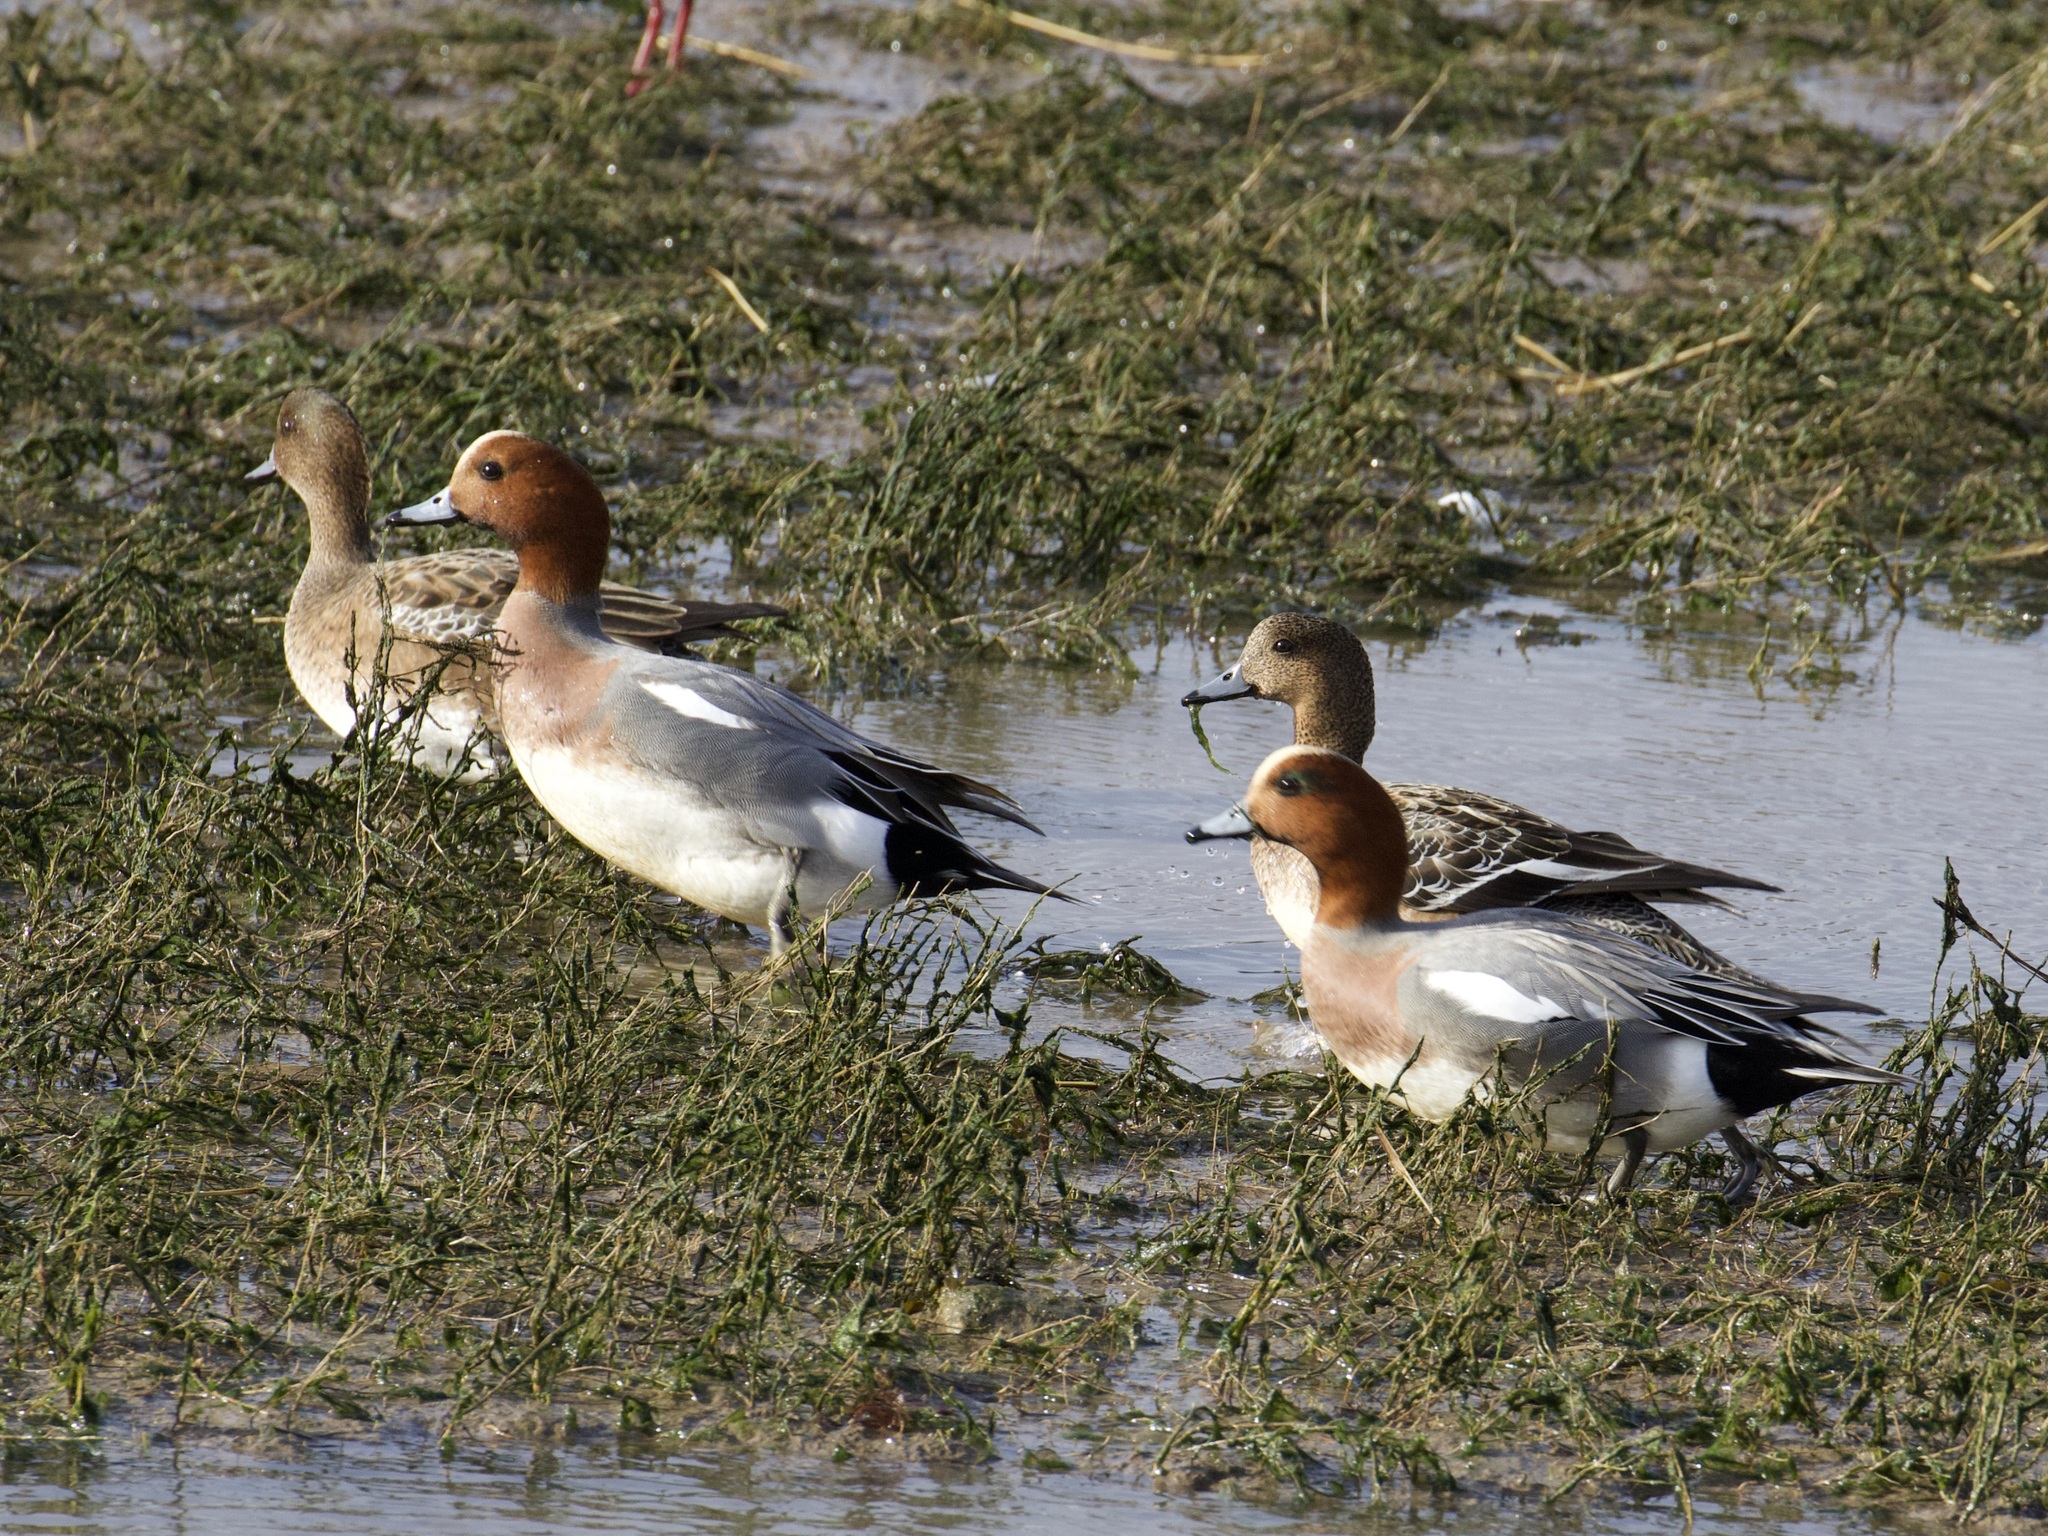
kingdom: Animalia
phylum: Chordata
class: Aves
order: Anseriformes
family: Anatidae
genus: Mareca
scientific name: Mareca penelope
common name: Eurasian wigeon
